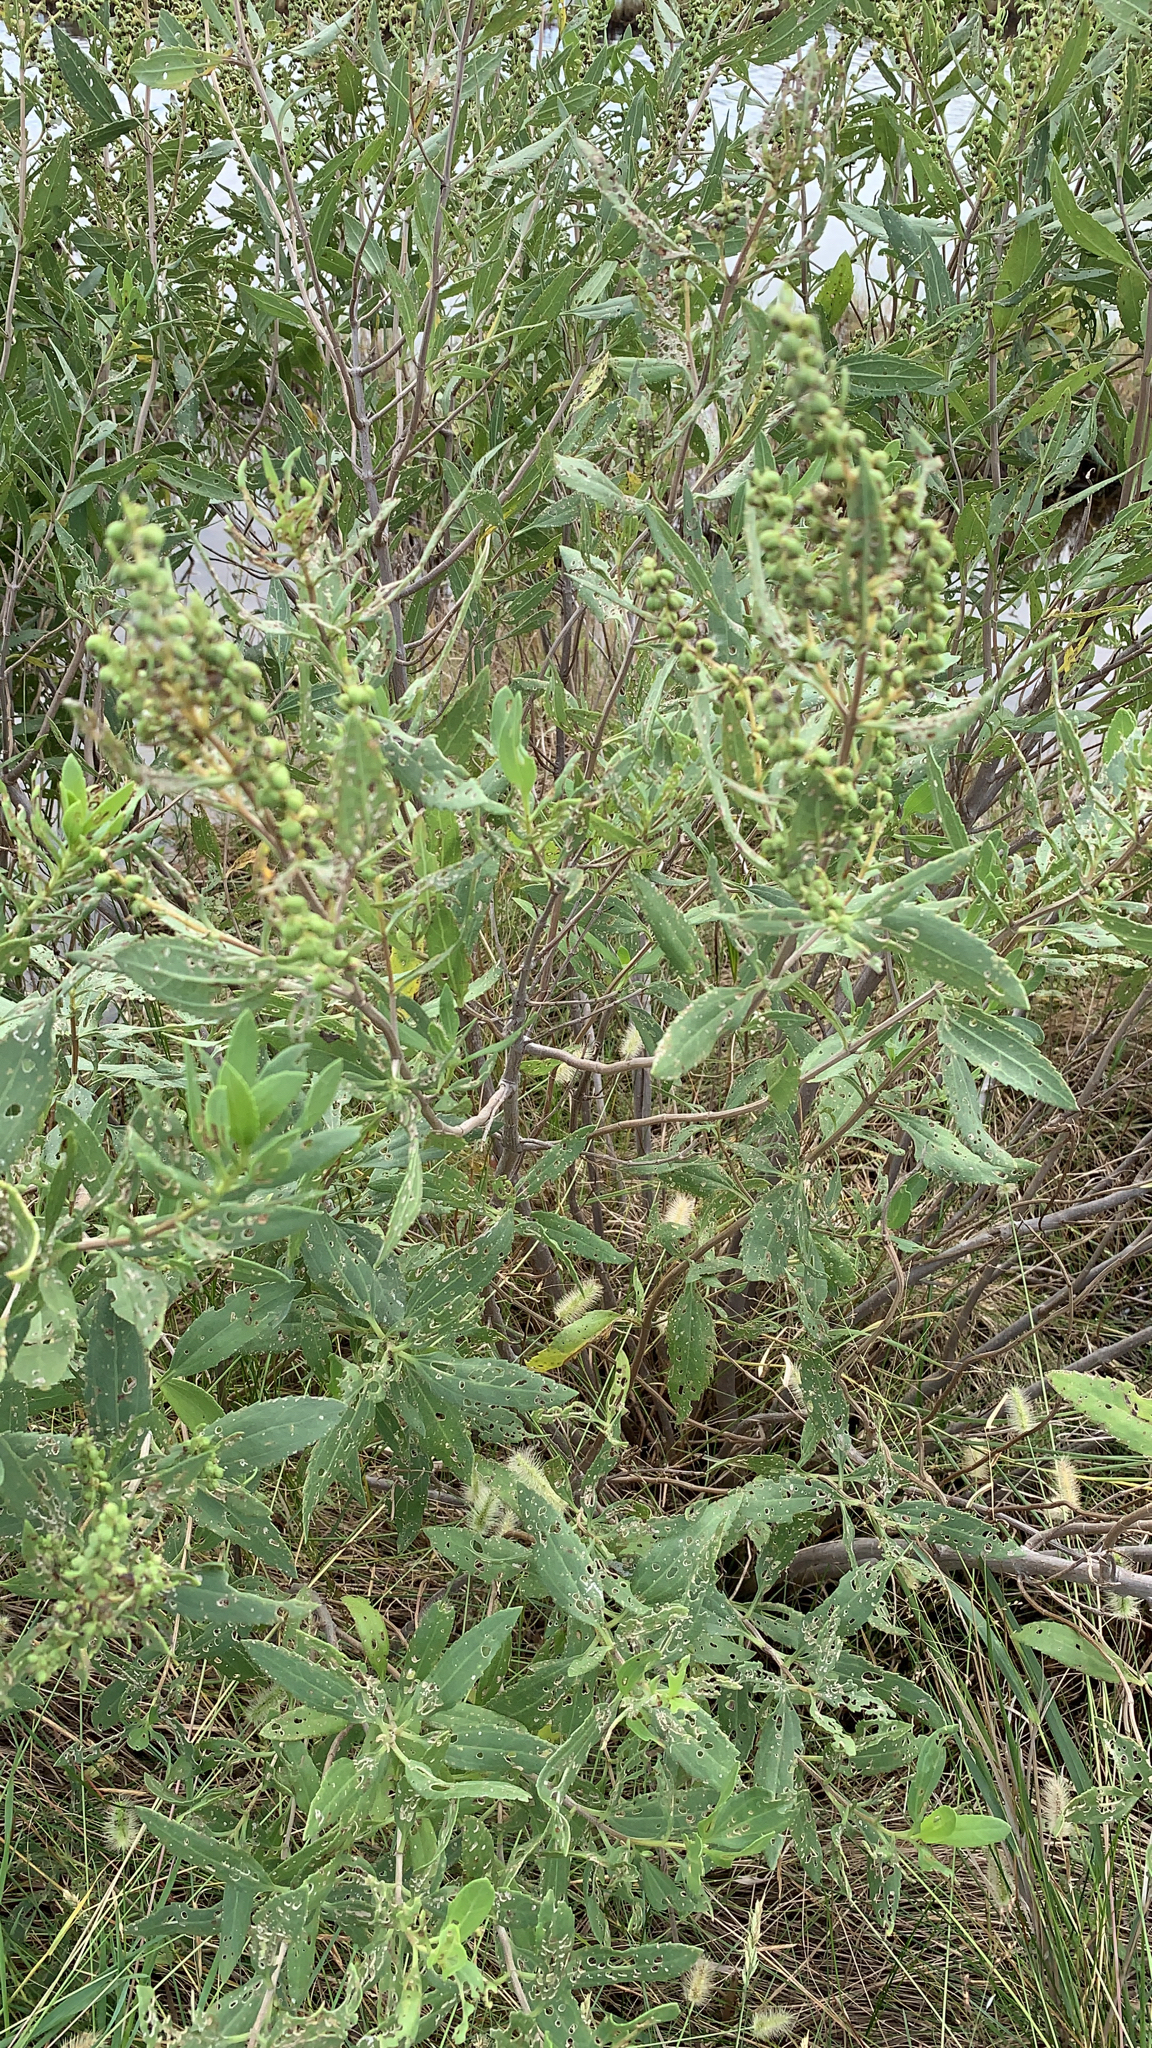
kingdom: Plantae
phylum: Tracheophyta
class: Magnoliopsida
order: Asterales
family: Asteraceae
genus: Iva
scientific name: Iva frutescens
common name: Big-leaved marsh-elder
